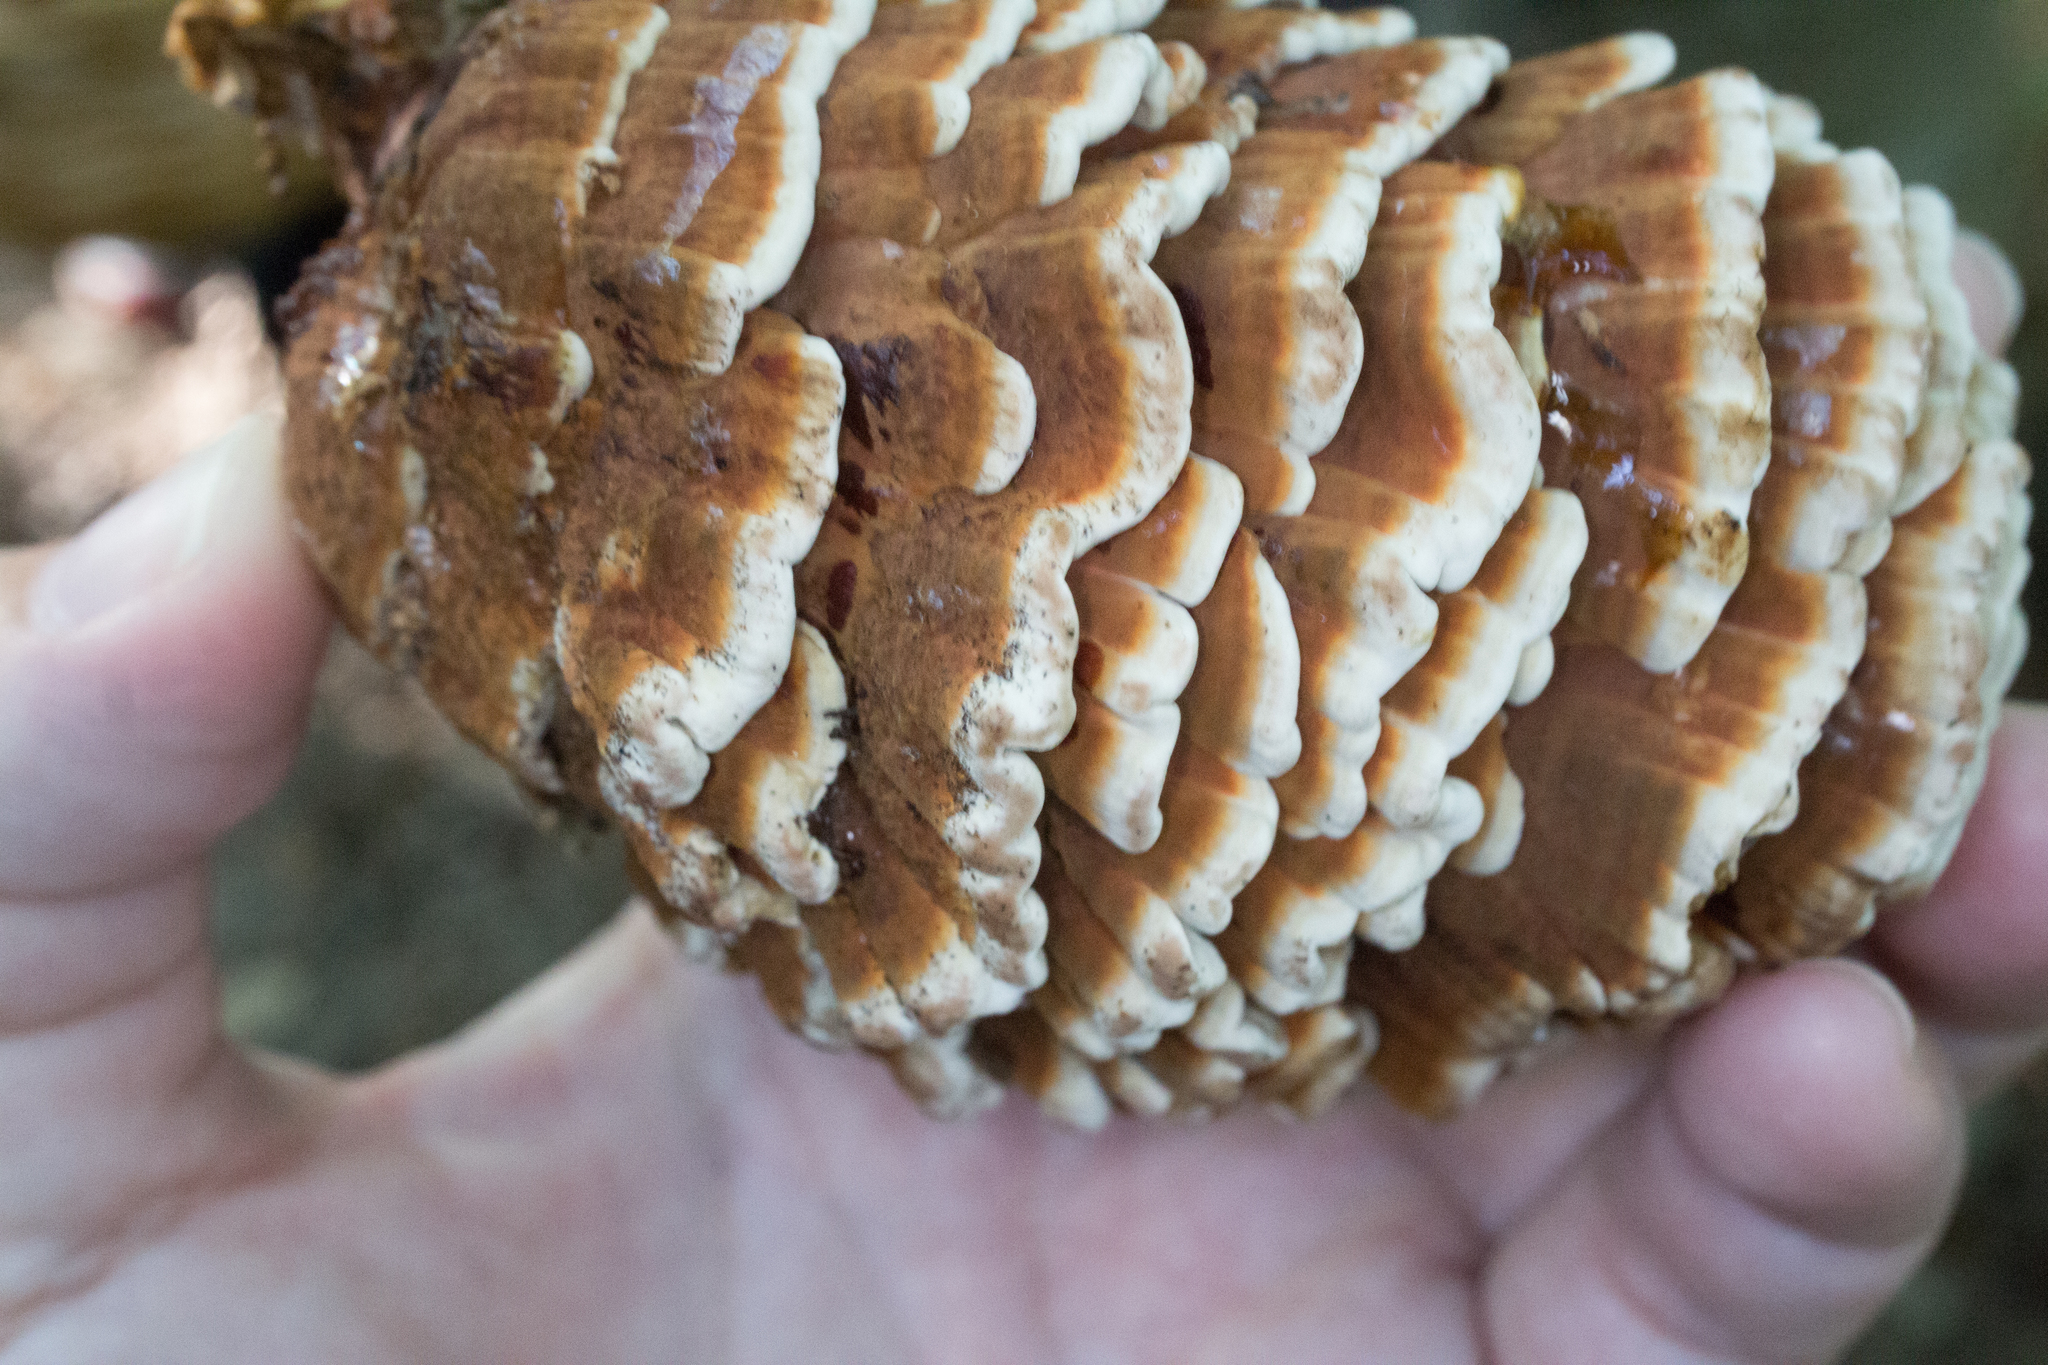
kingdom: Fungi
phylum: Basidiomycota
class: Agaricomycetes
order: Polyporales
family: Polyporaceae
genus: Globifomes
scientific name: Globifomes graveolens
